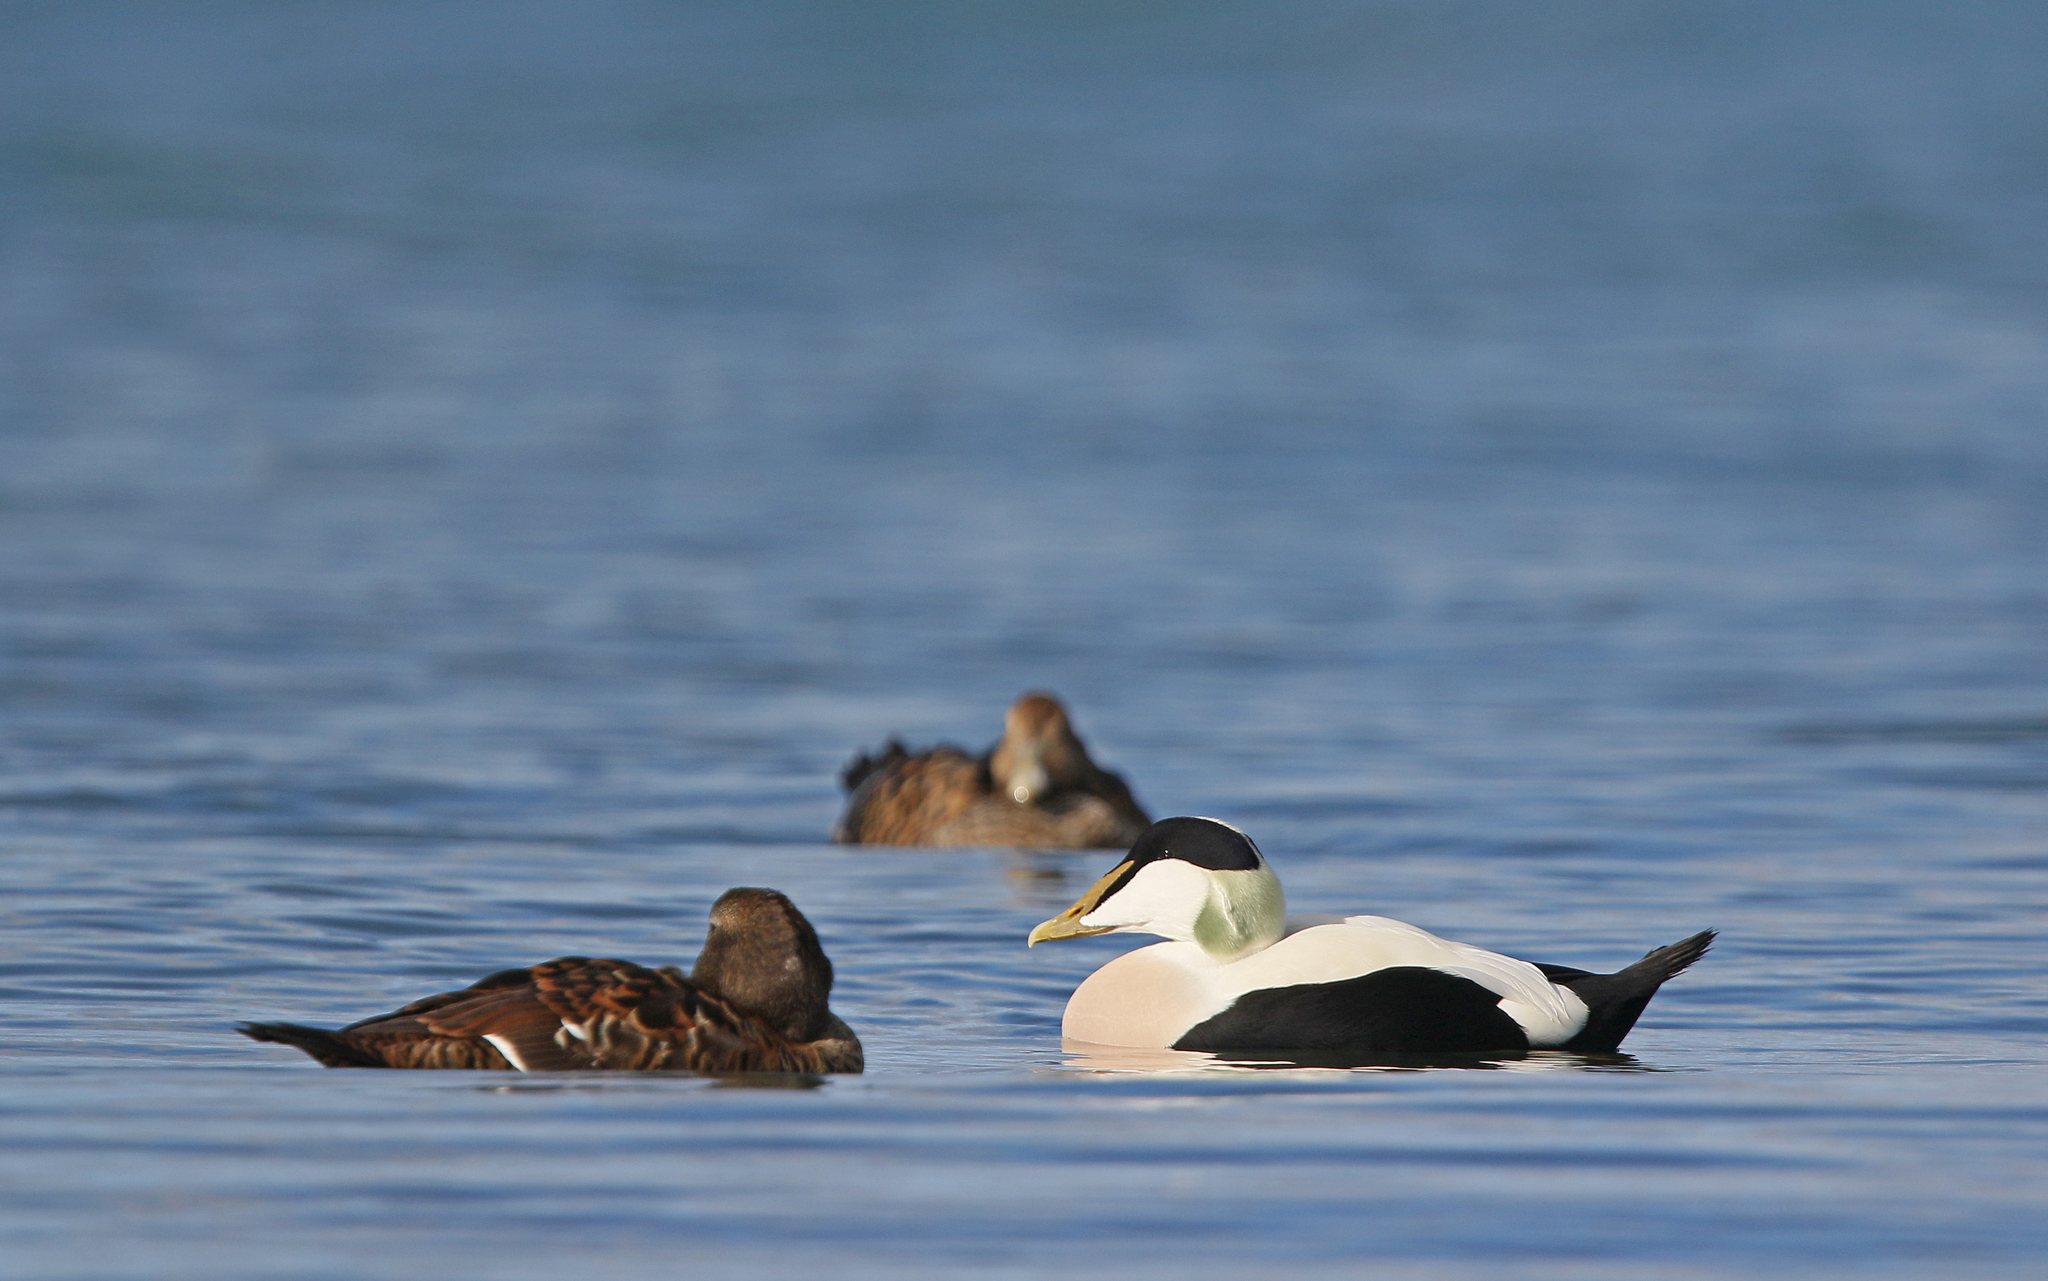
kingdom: Animalia
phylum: Chordata
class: Aves
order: Anseriformes
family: Anatidae
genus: Somateria
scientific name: Somateria mollissima
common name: Common eider
